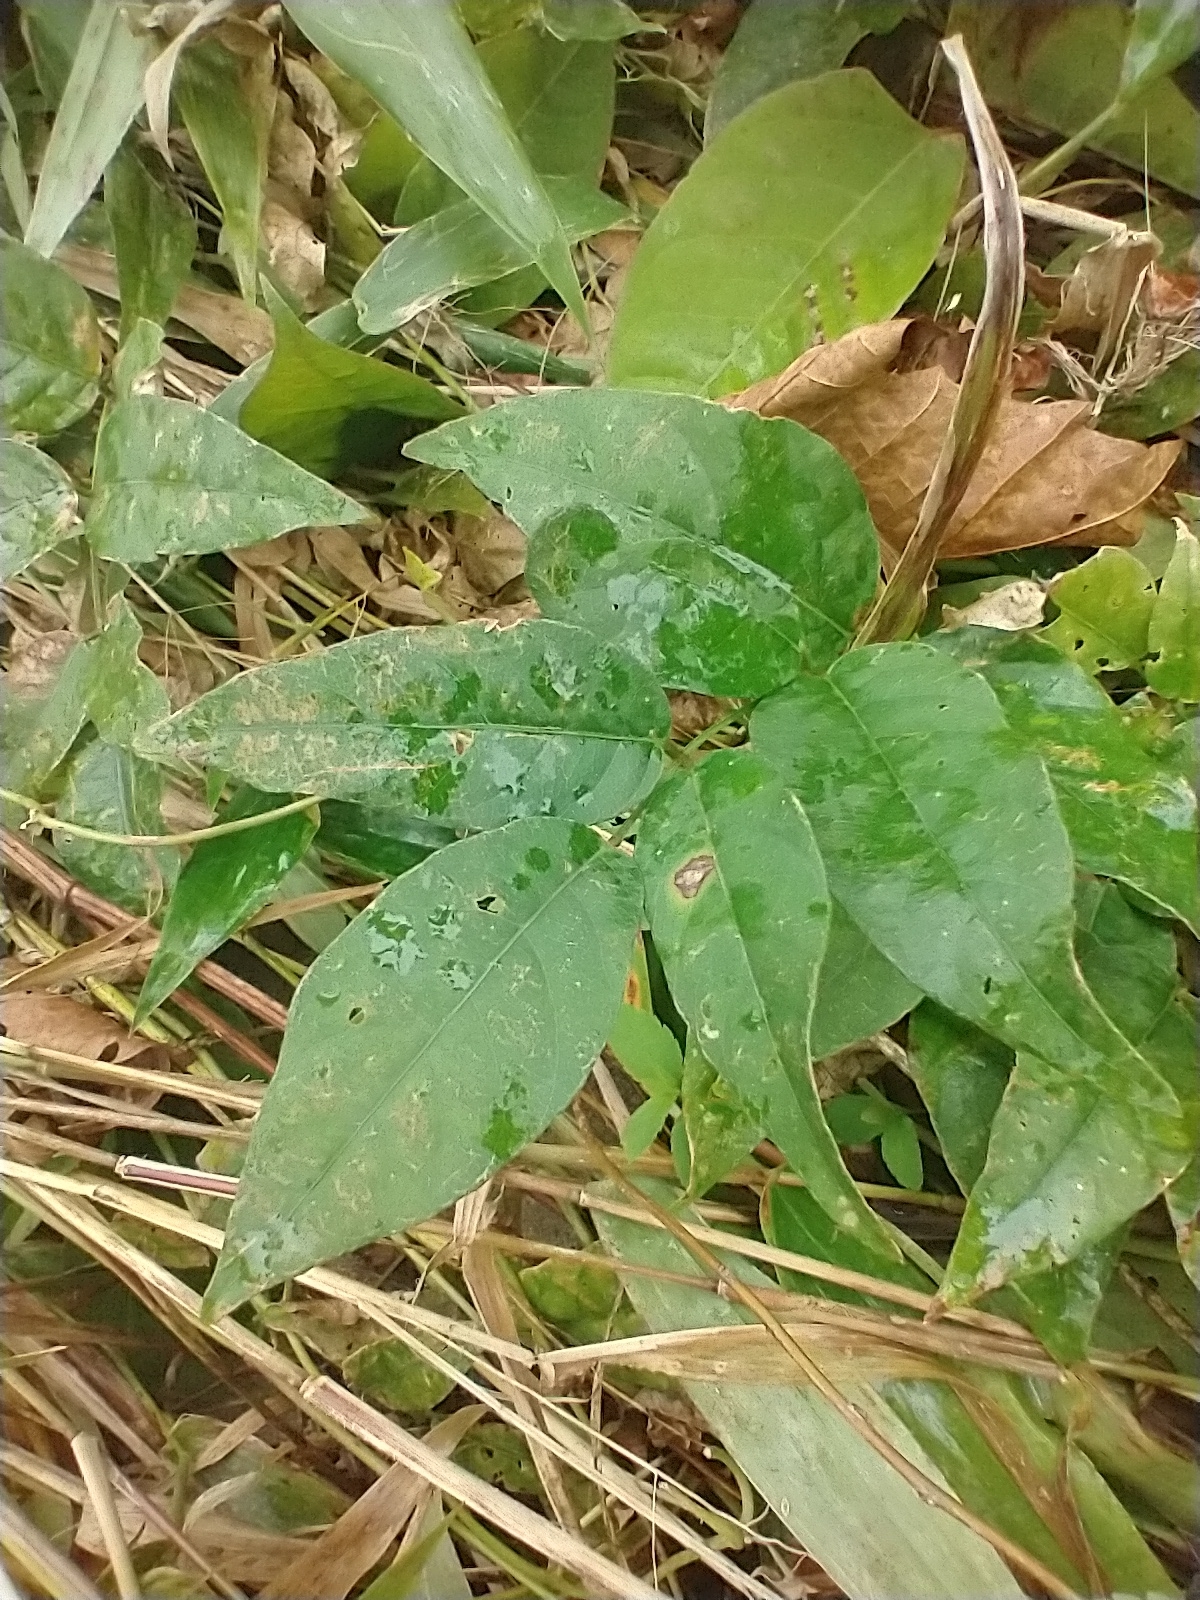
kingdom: Plantae
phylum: Tracheophyta
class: Magnoliopsida
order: Fabales
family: Fabaceae
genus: Apios
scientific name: Apios americana
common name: American potato-bean
